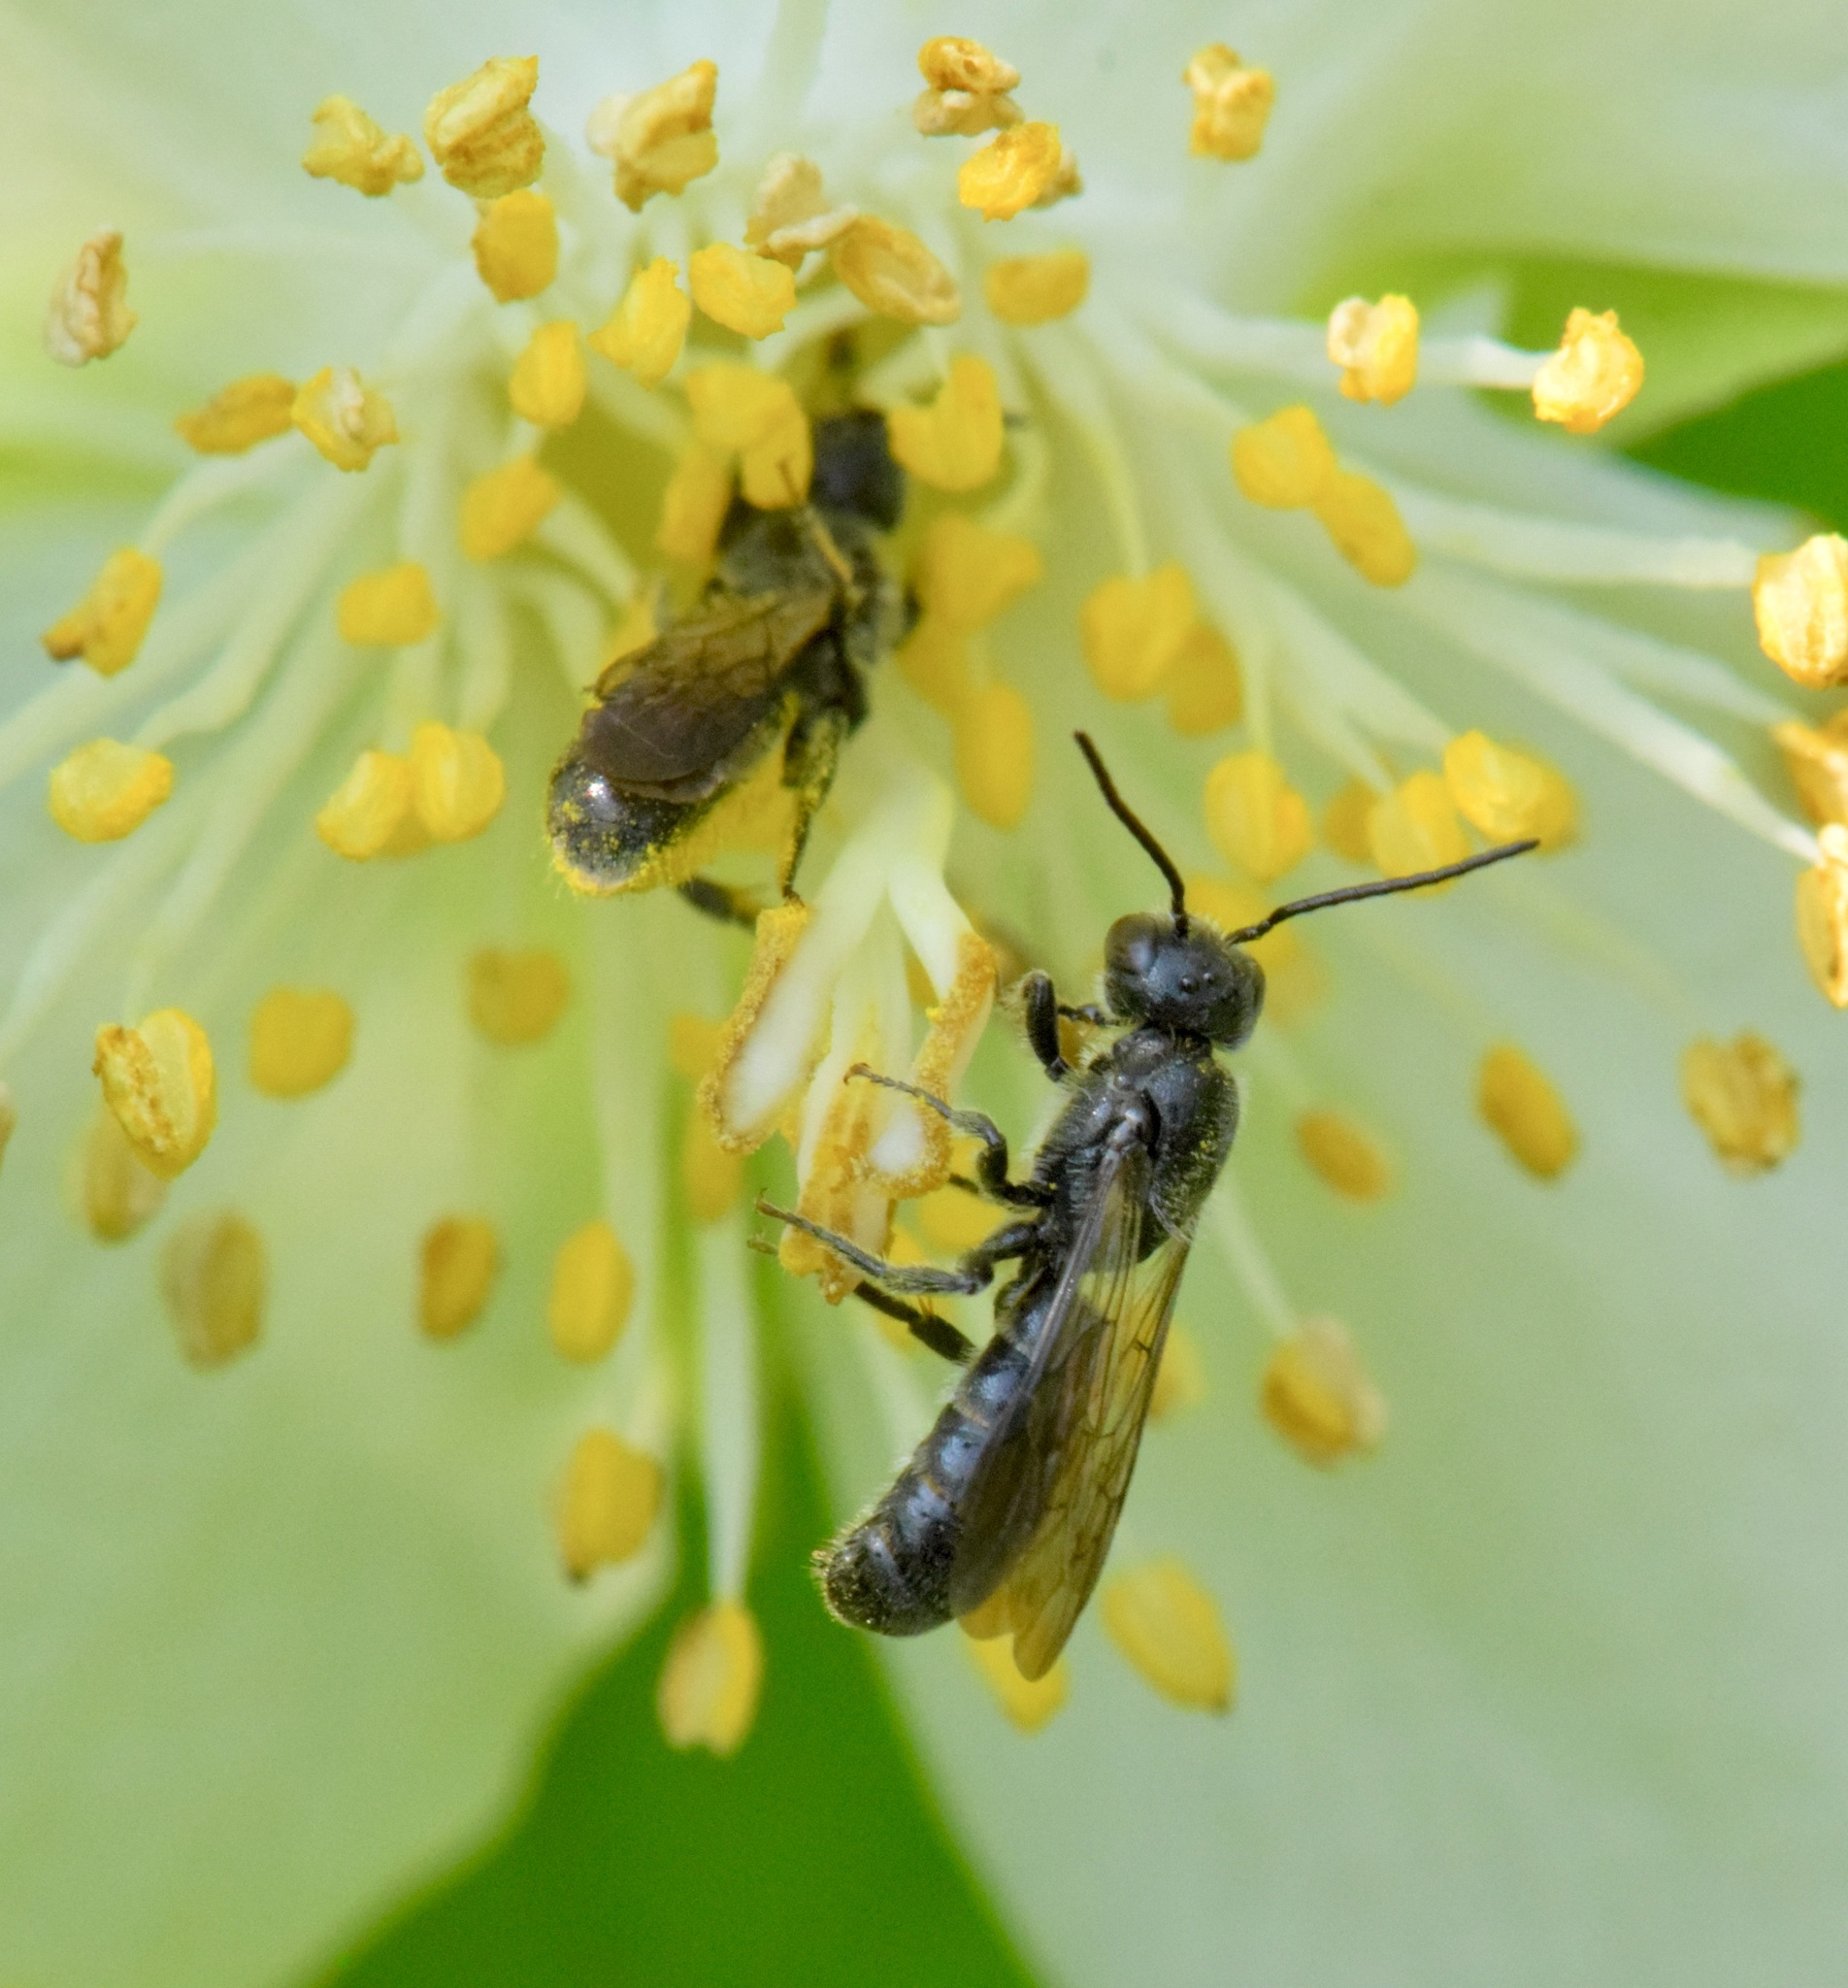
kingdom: Animalia
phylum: Arthropoda
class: Insecta
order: Hymenoptera
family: Megachilidae
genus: Chelostoma
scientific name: Chelostoma philadelphi
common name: Mock-orange scissor bee
